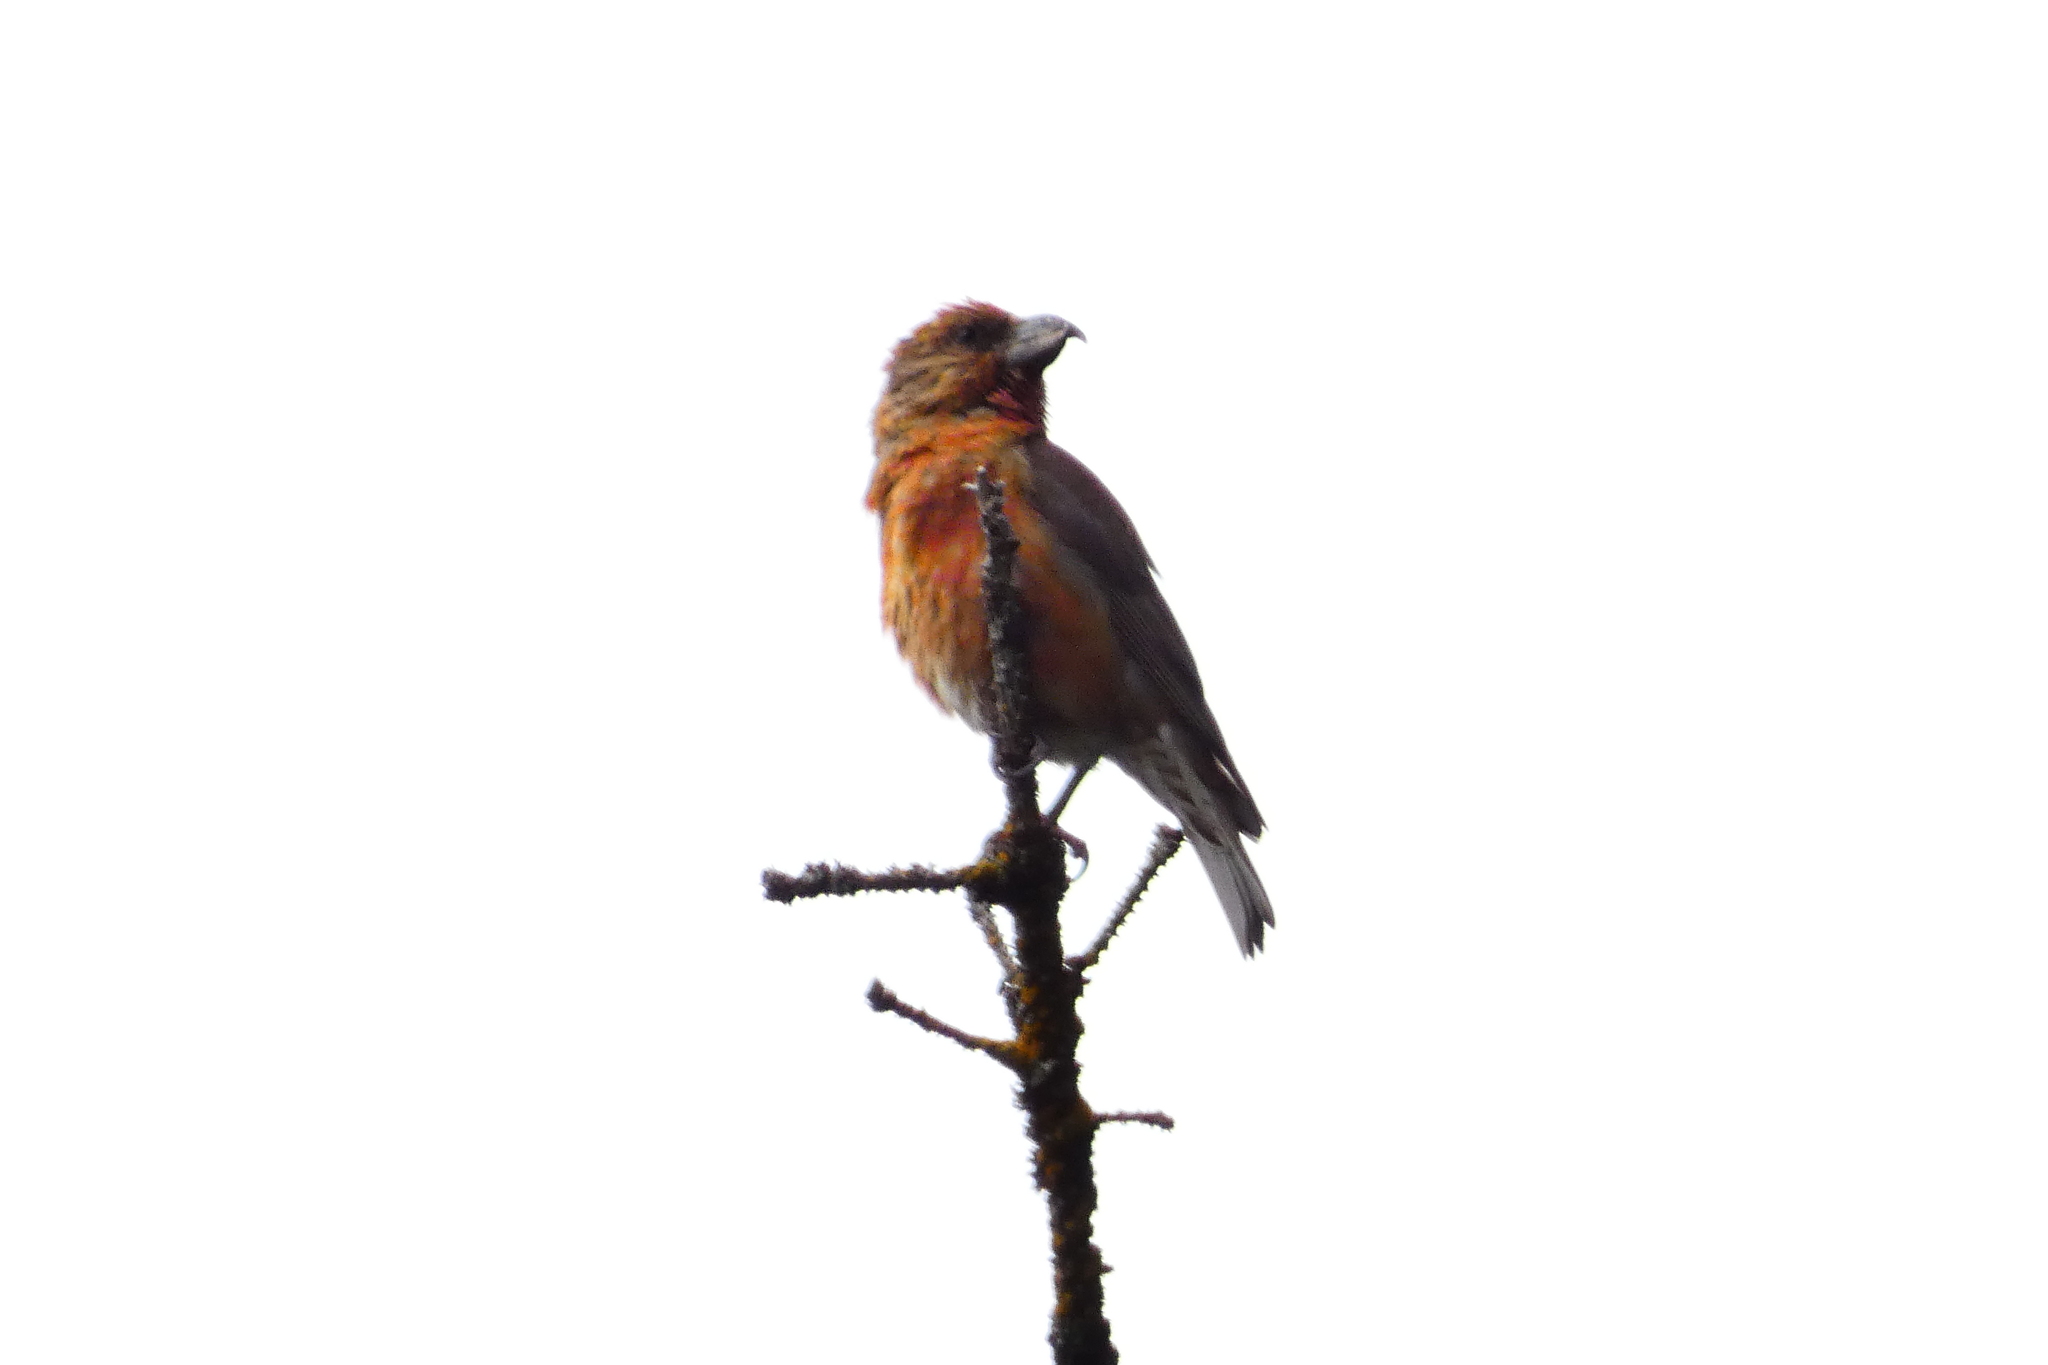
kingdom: Animalia
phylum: Chordata
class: Aves
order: Passeriformes
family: Fringillidae
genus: Loxia
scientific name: Loxia curvirostra
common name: Red crossbill
